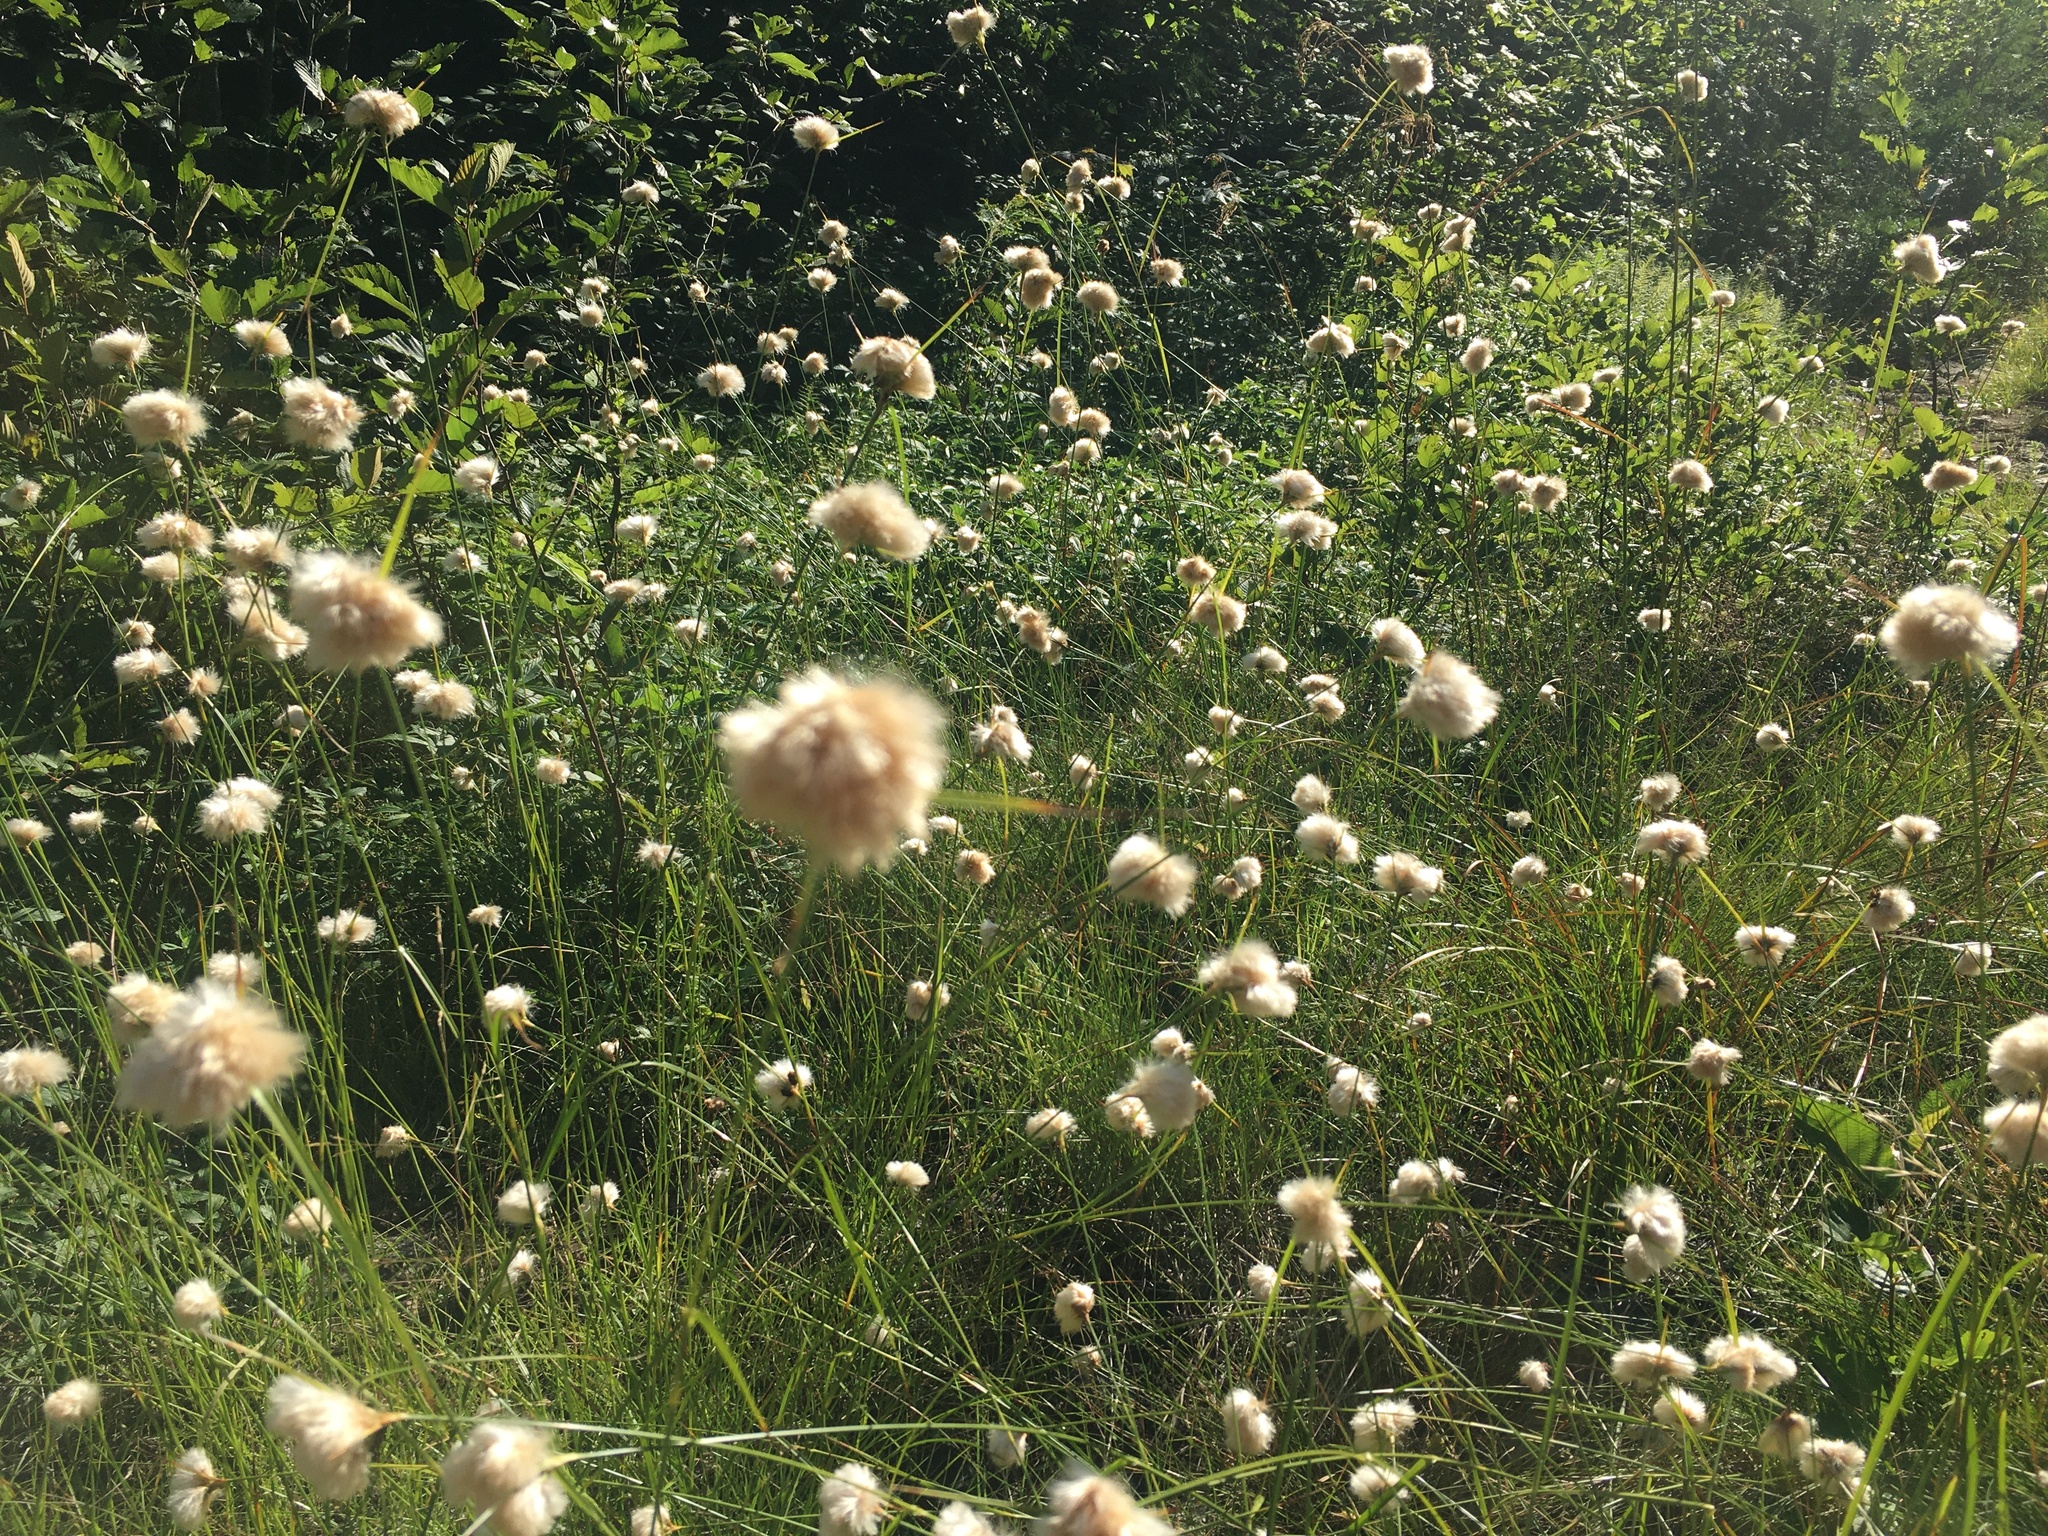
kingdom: Plantae
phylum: Tracheophyta
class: Liliopsida
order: Poales
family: Cyperaceae
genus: Eriophorum
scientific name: Eriophorum virginicum
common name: Tawny cottongrass
